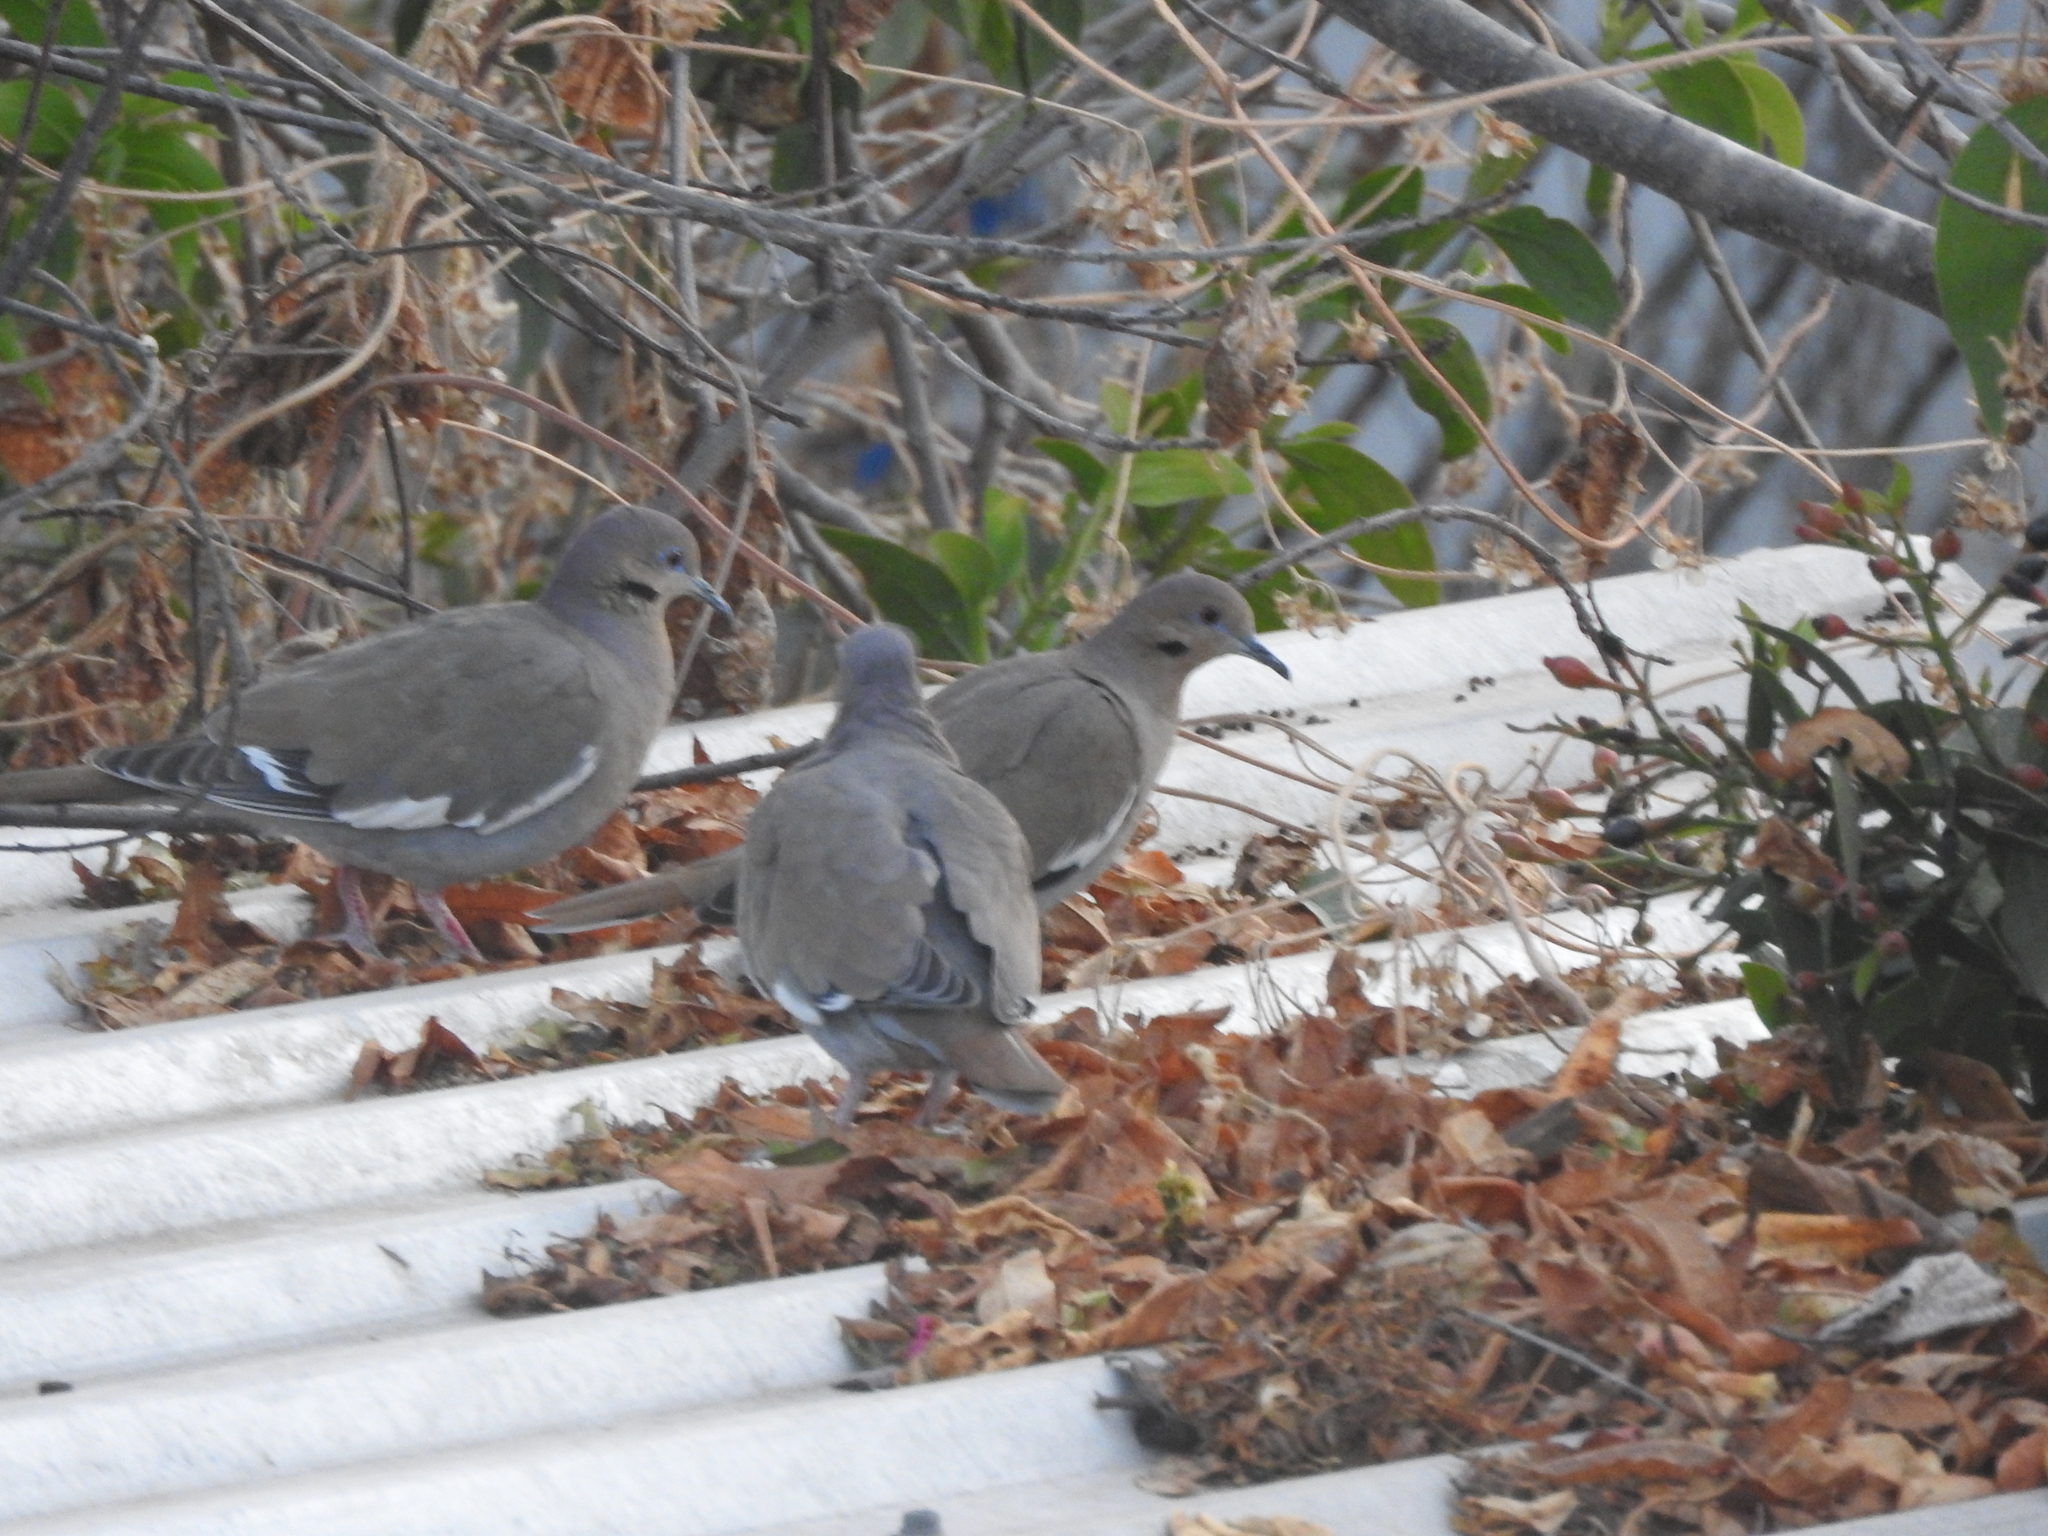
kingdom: Animalia
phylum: Chordata
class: Aves
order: Columbiformes
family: Columbidae
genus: Zenaida
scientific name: Zenaida asiatica
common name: White-winged dove
